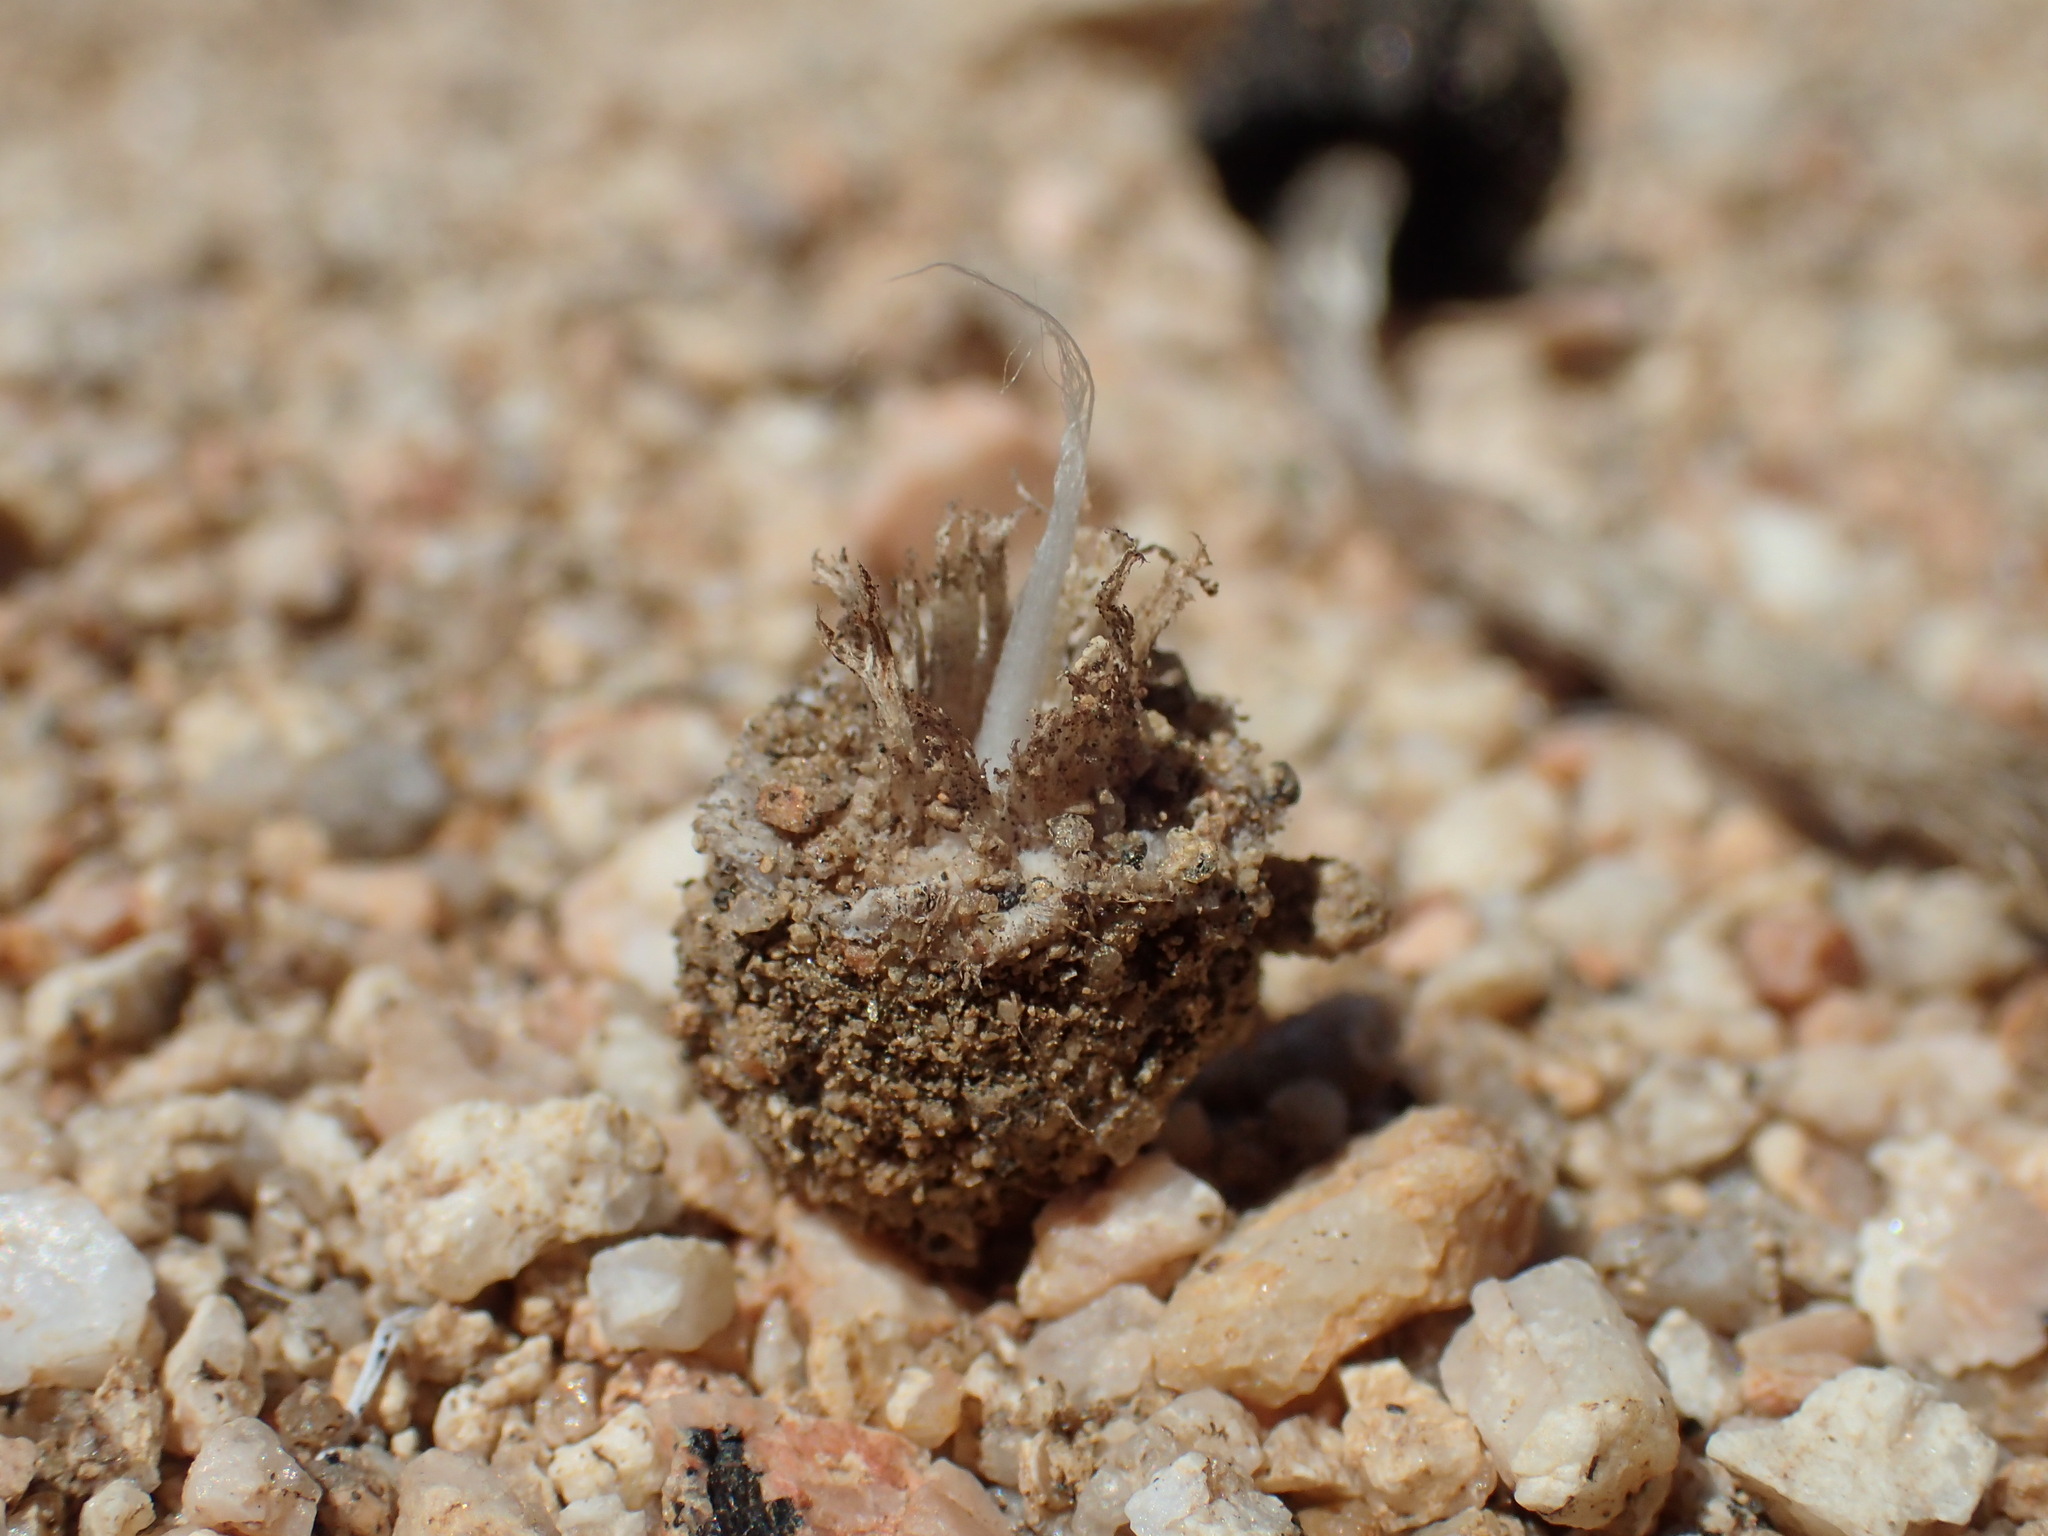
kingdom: Fungi
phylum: Basidiomycota
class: Agaricomycetes
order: Agaricales
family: Agaricaceae
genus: Montagnea
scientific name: Montagnea arenaria
